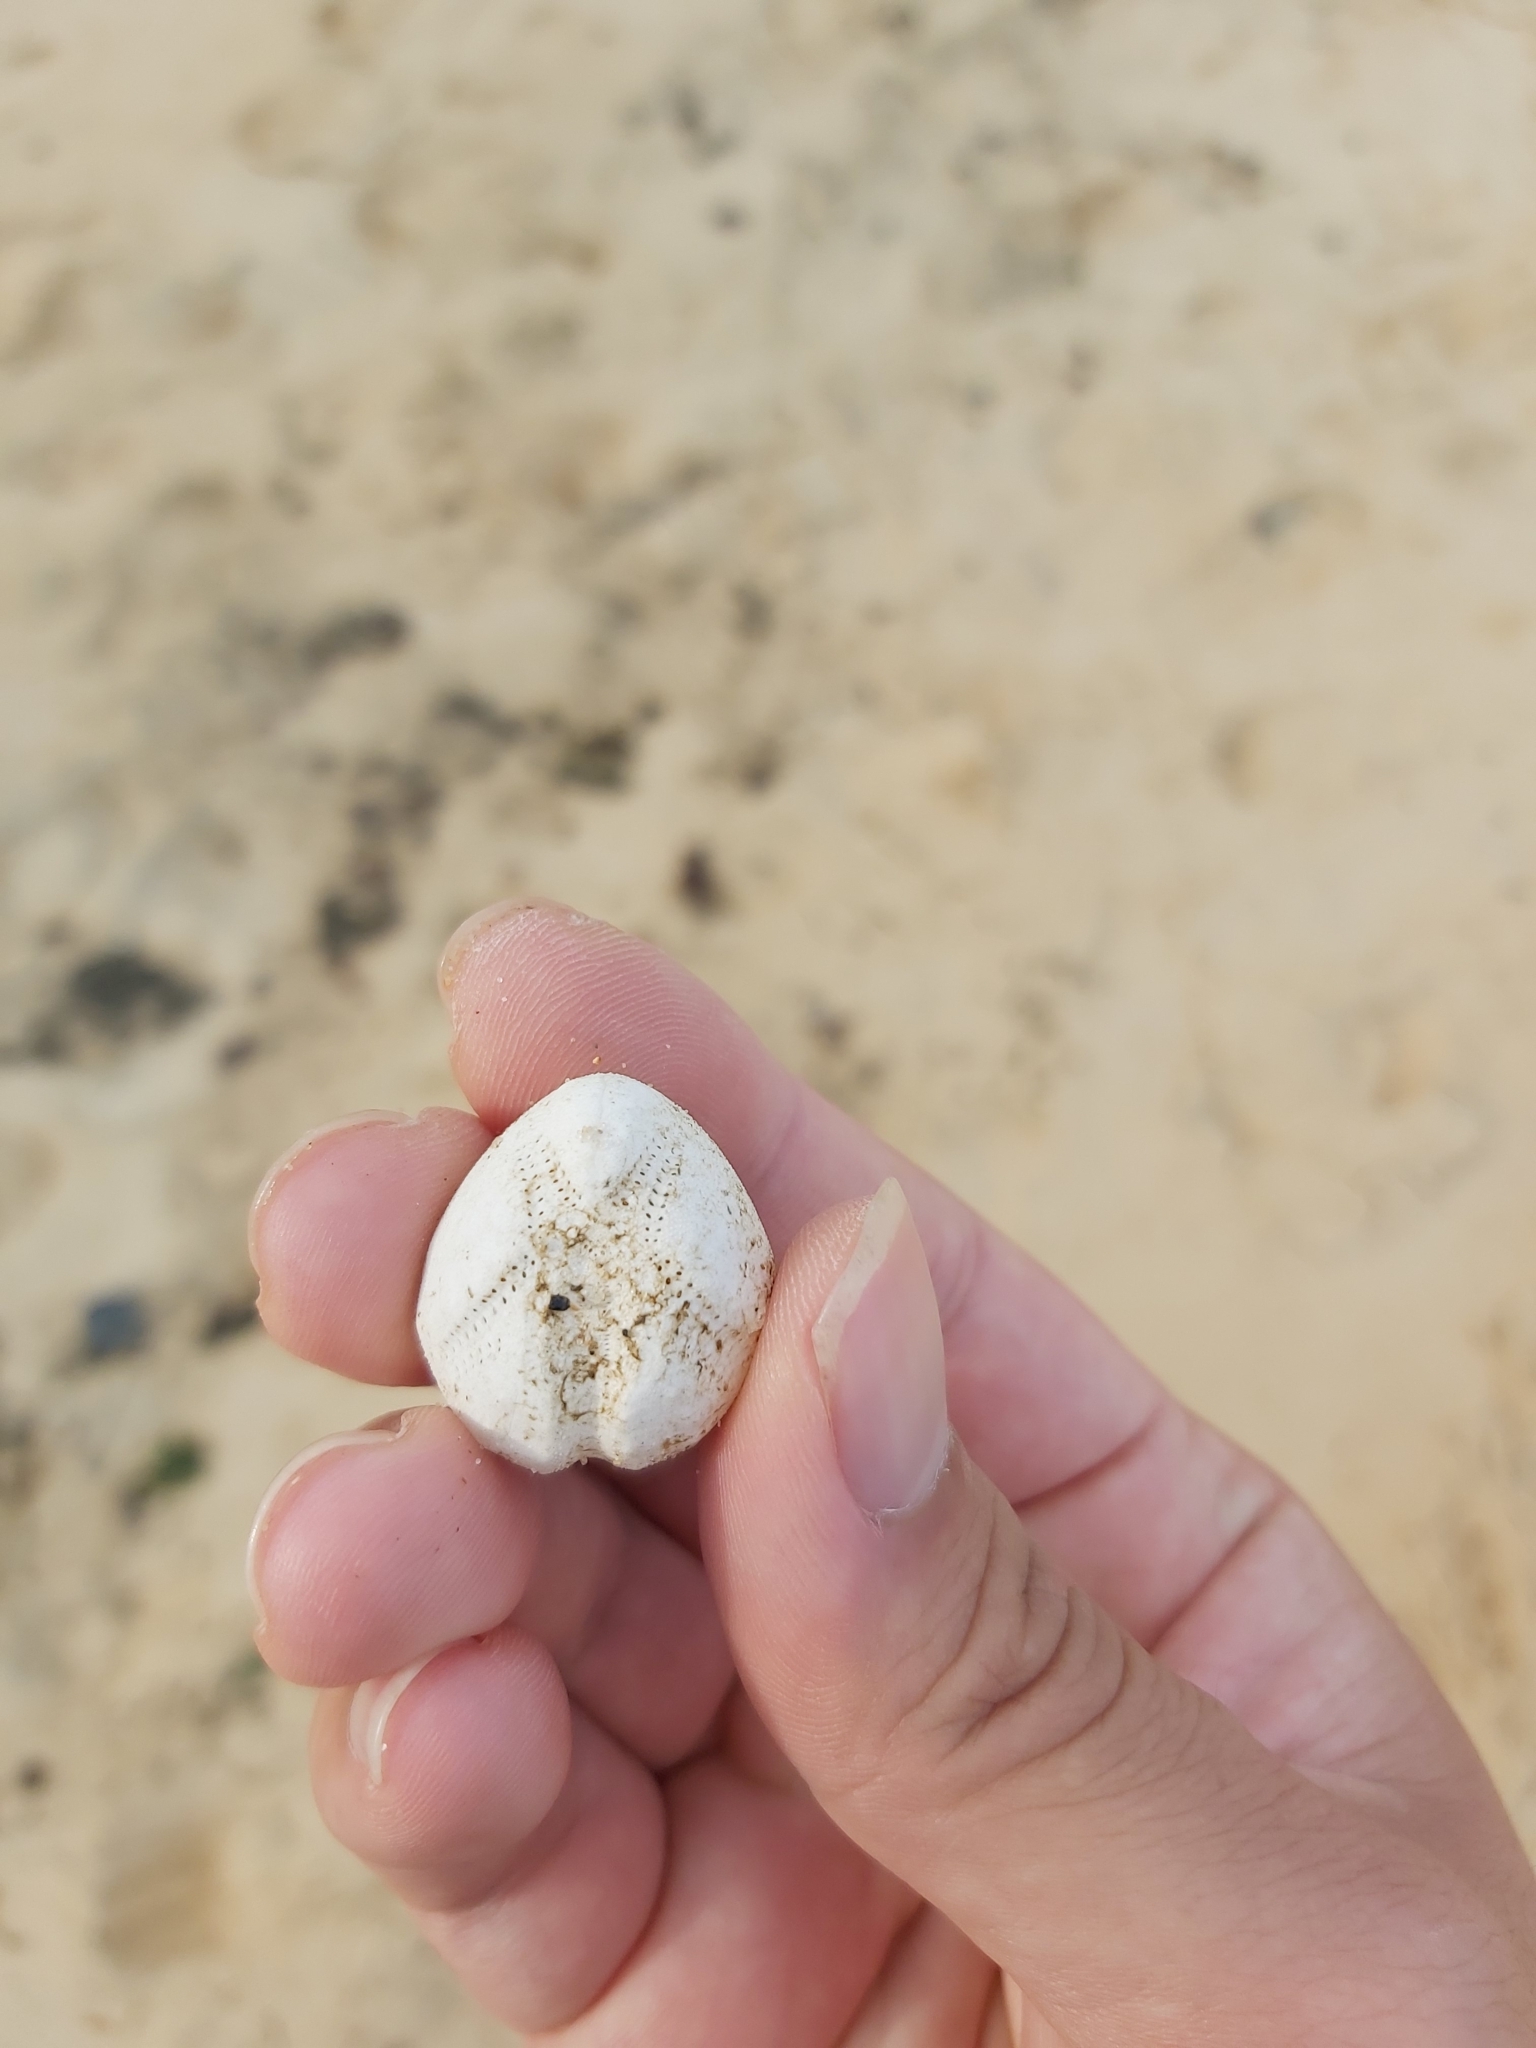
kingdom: Animalia
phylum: Echinodermata
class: Echinoidea
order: Spatangoida
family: Loveniidae
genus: Echinocardium
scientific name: Echinocardium cordatum
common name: Heart-urchin
